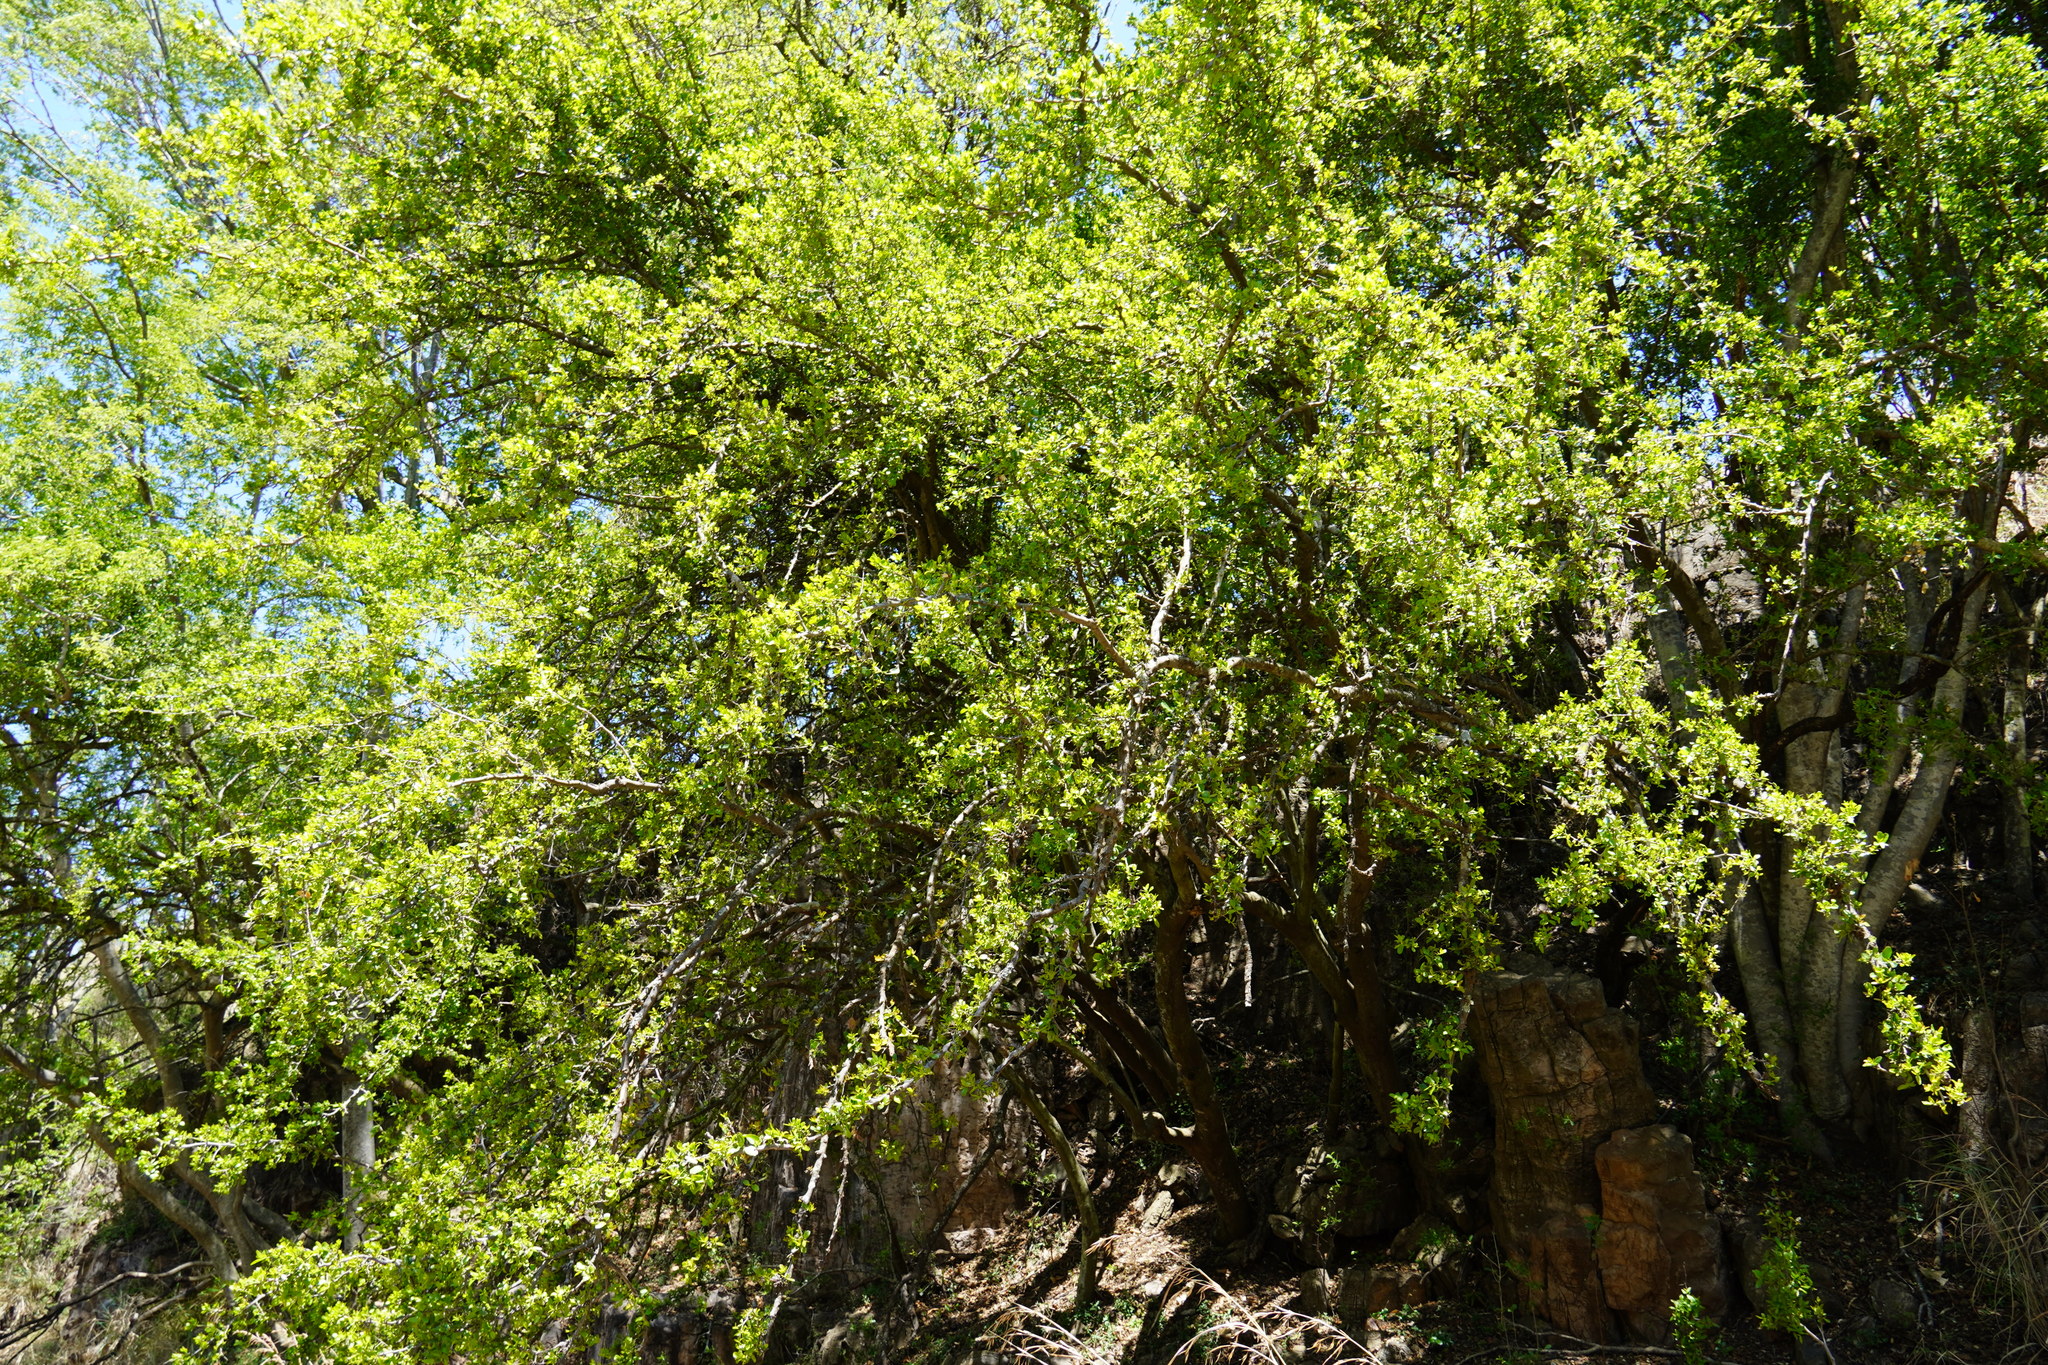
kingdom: Plantae
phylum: Tracheophyta
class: Magnoliopsida
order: Malpighiales
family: Salicaceae
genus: Dovyalis
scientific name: Dovyalis zeyheri
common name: Apricot sourberry
